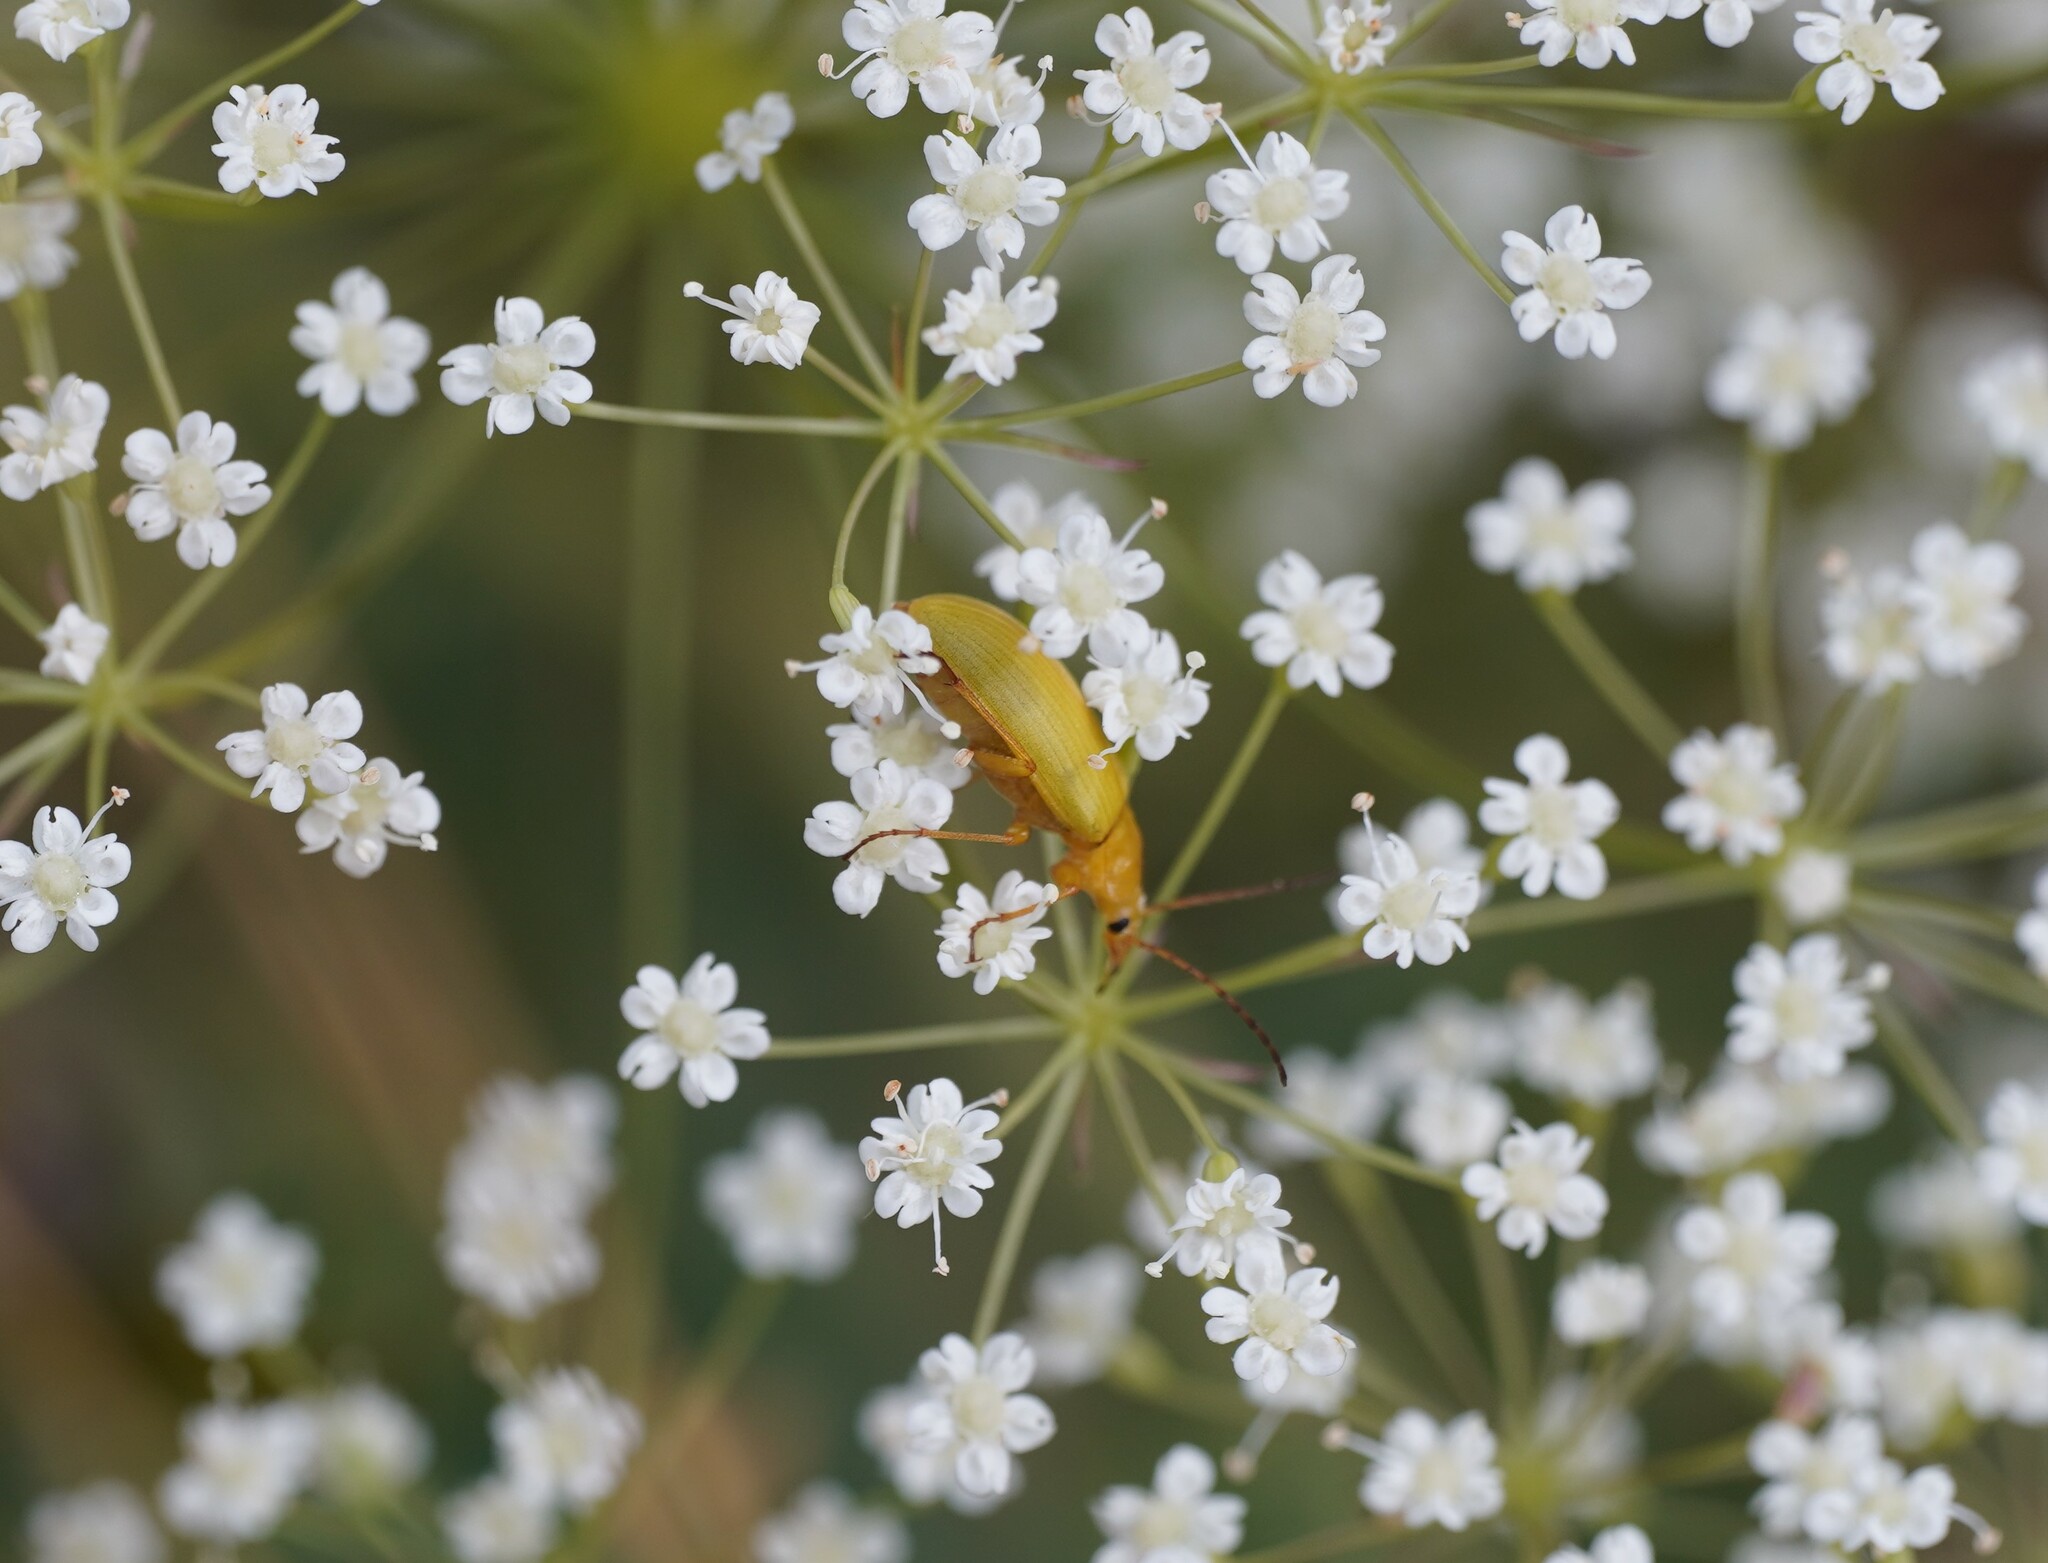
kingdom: Animalia
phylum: Arthropoda
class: Insecta
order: Coleoptera
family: Tenebrionidae
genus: Cteniopus
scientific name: Cteniopus sulphureus
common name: Sulphur beetle
